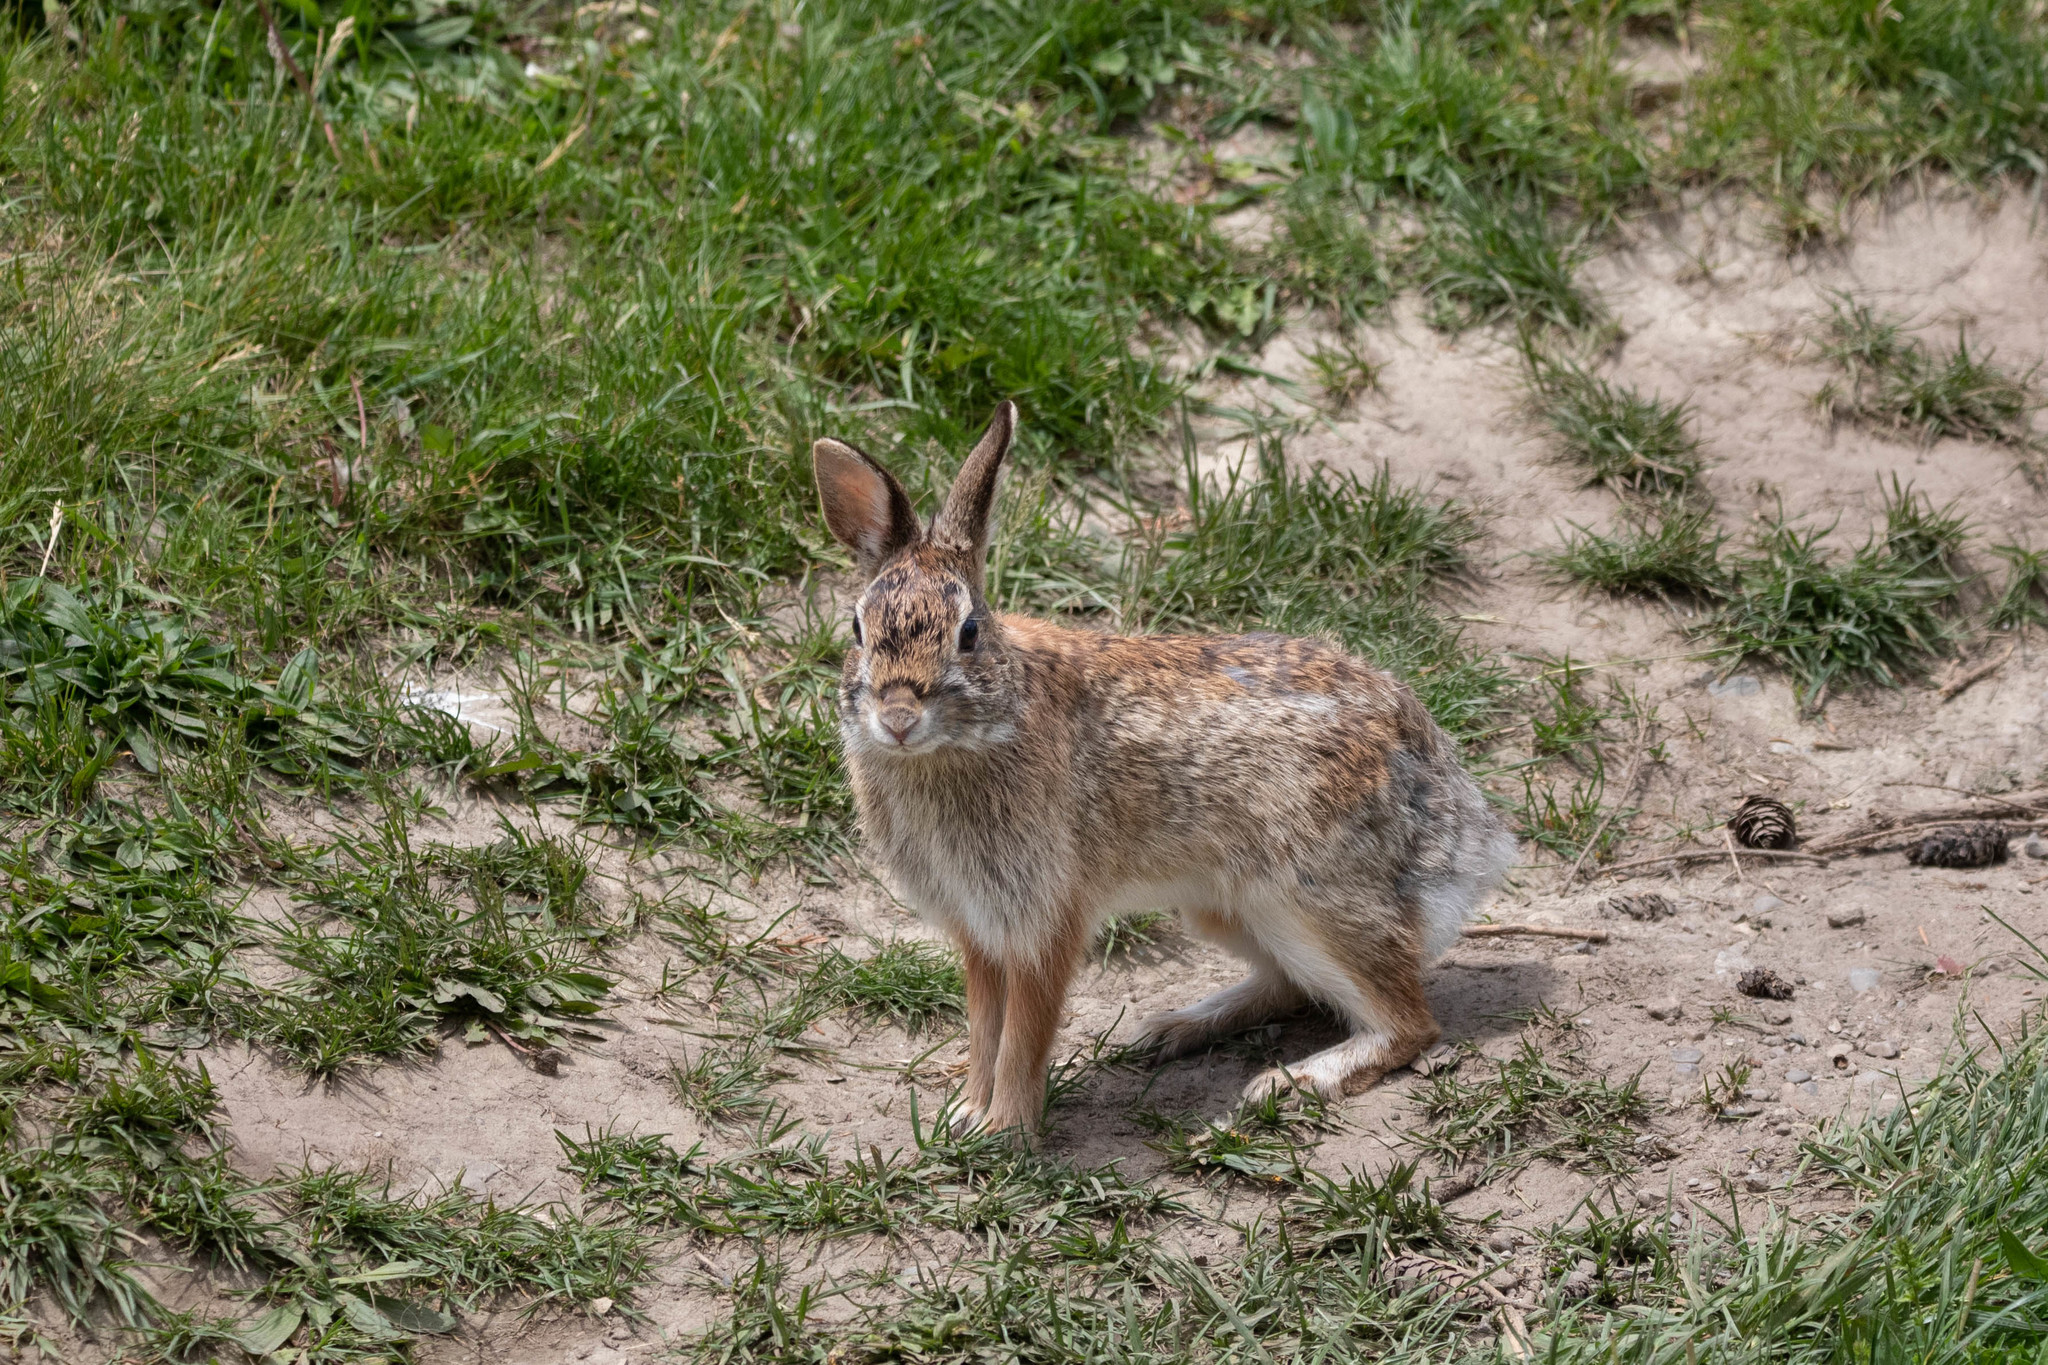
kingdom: Animalia
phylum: Chordata
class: Mammalia
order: Lagomorpha
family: Leporidae
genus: Sylvilagus
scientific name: Sylvilagus floridanus
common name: Eastern cottontail
